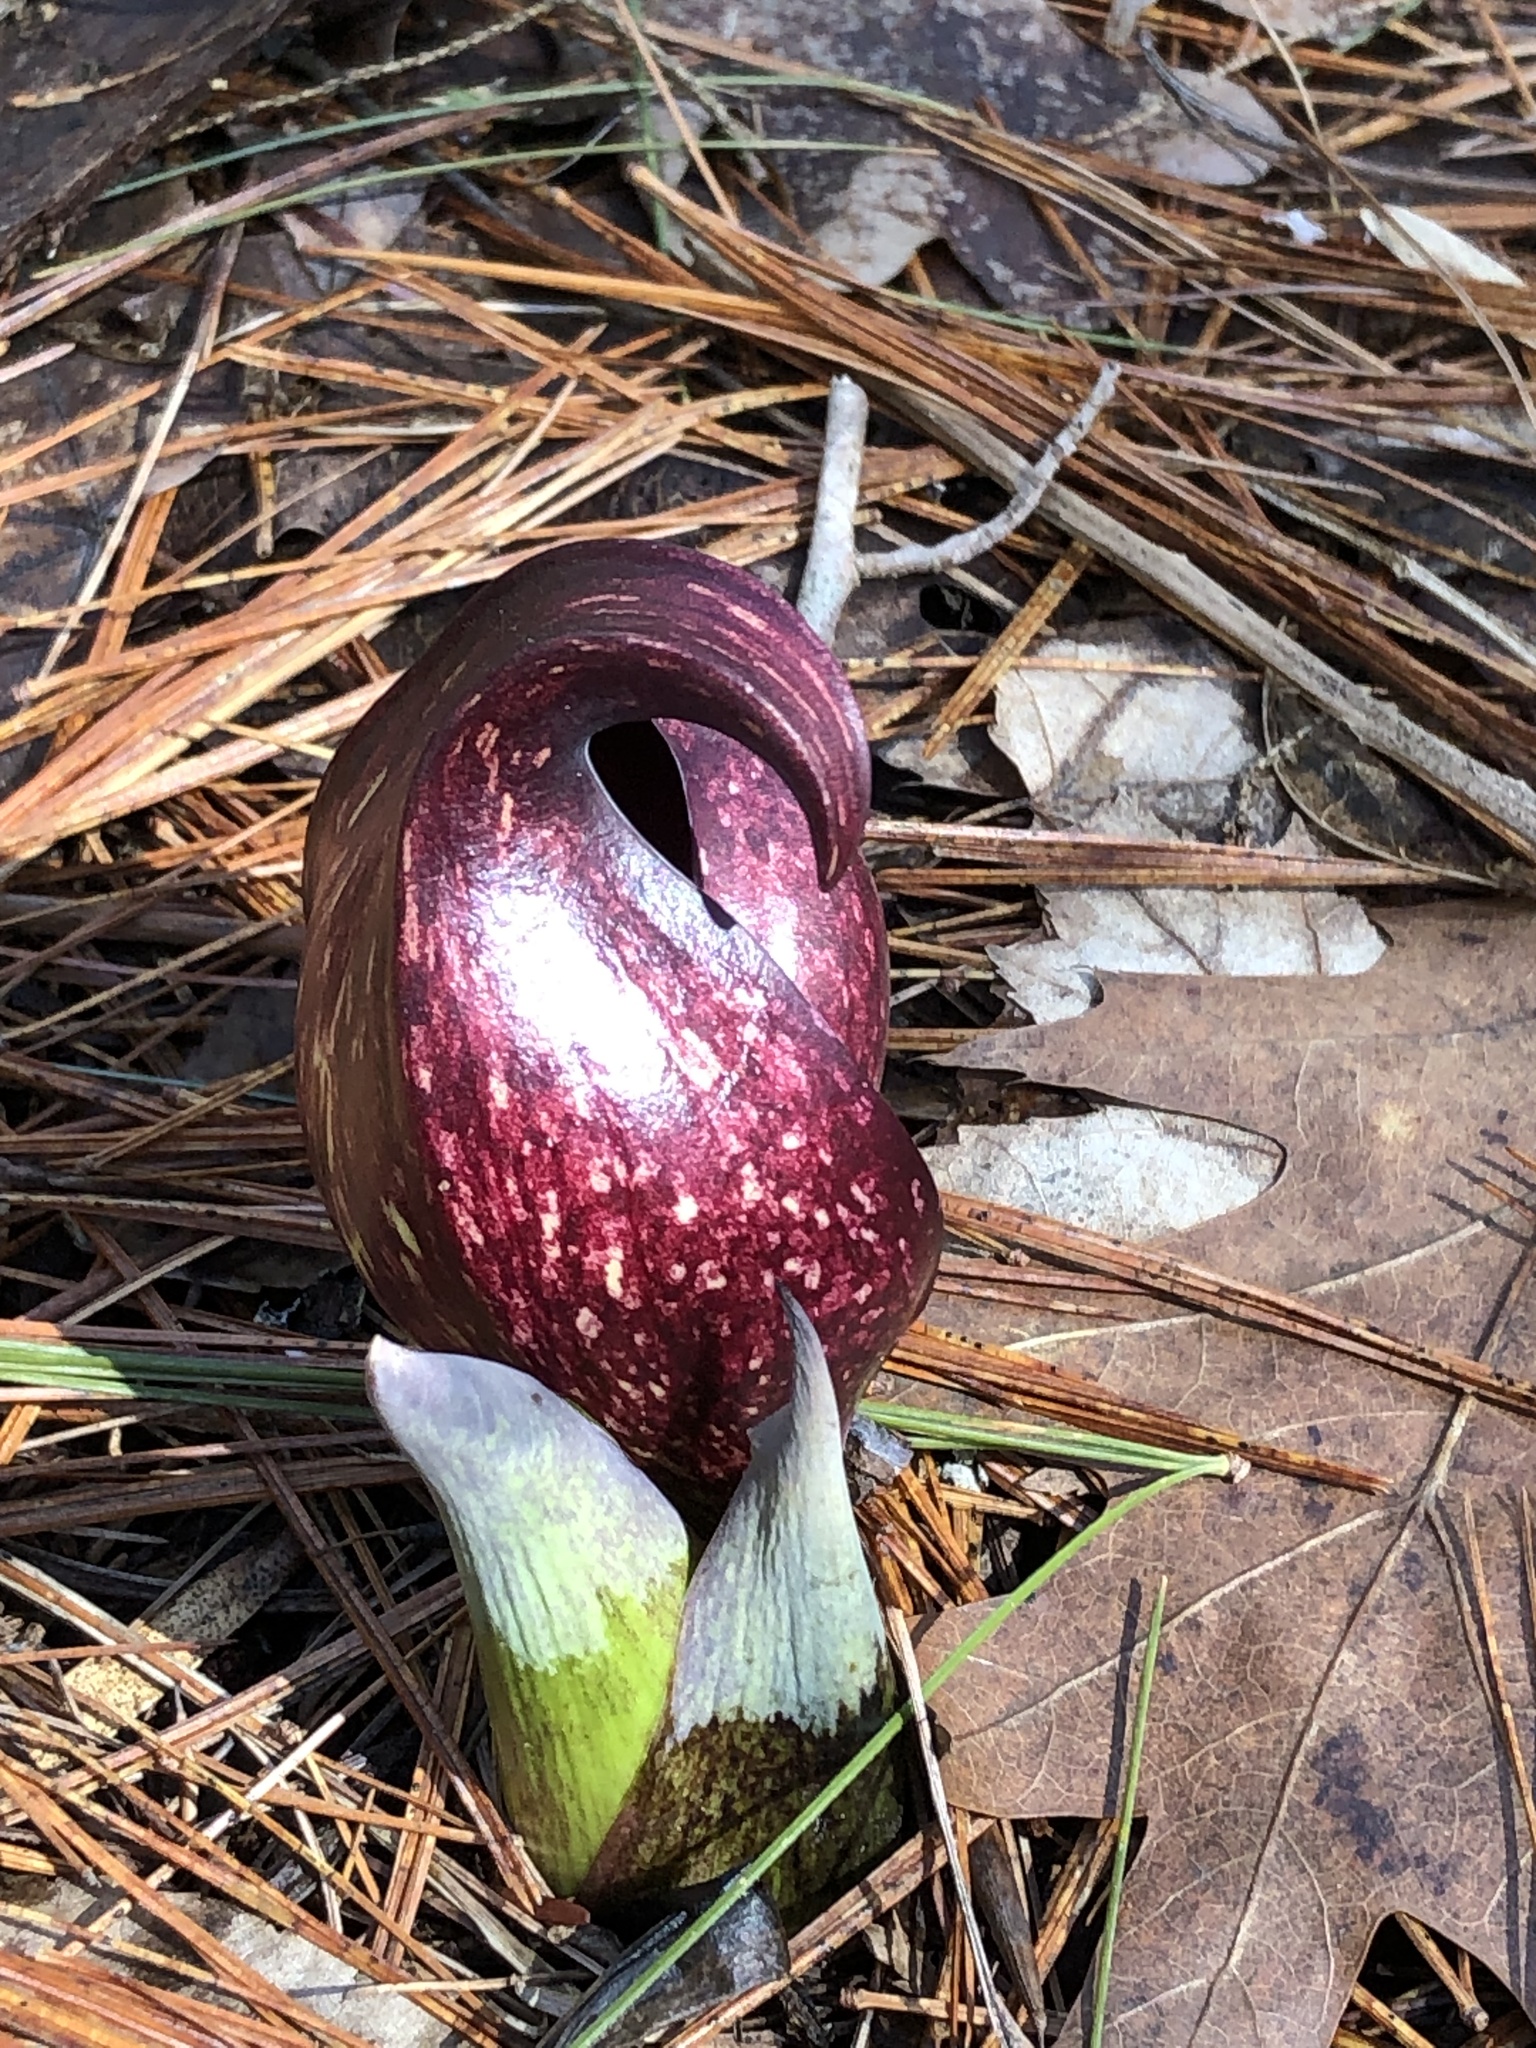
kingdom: Plantae
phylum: Tracheophyta
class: Liliopsida
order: Alismatales
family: Araceae
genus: Symplocarpus
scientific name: Symplocarpus foetidus
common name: Eastern skunk cabbage
